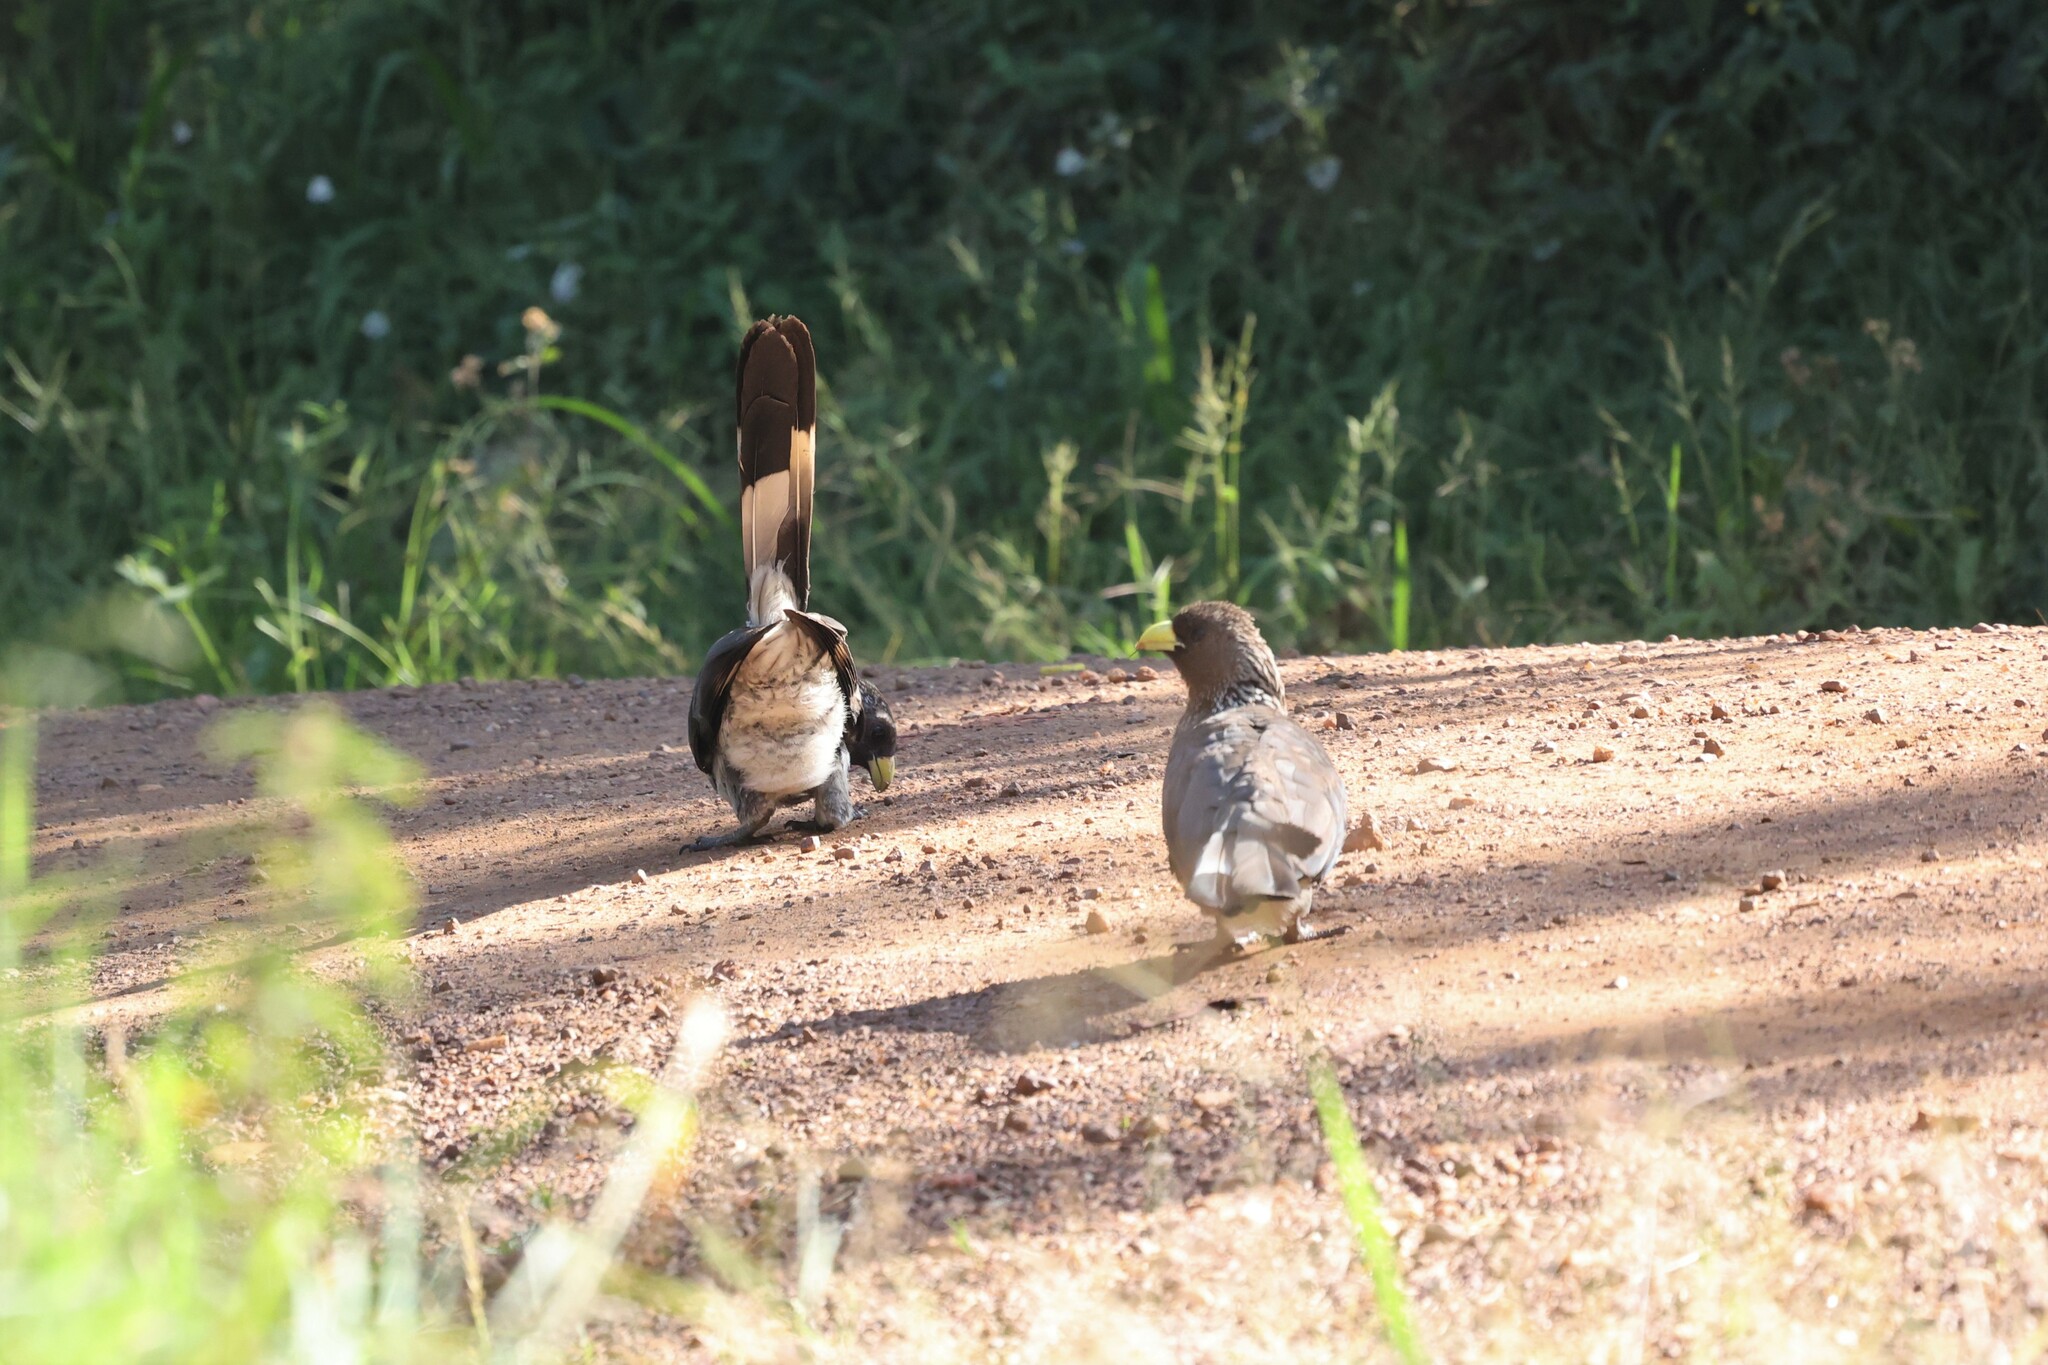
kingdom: Animalia
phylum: Chordata
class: Aves
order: Musophagiformes
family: Musophagidae
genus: Crinifer
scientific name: Crinifer zonurus
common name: Eastern plantain-eater
